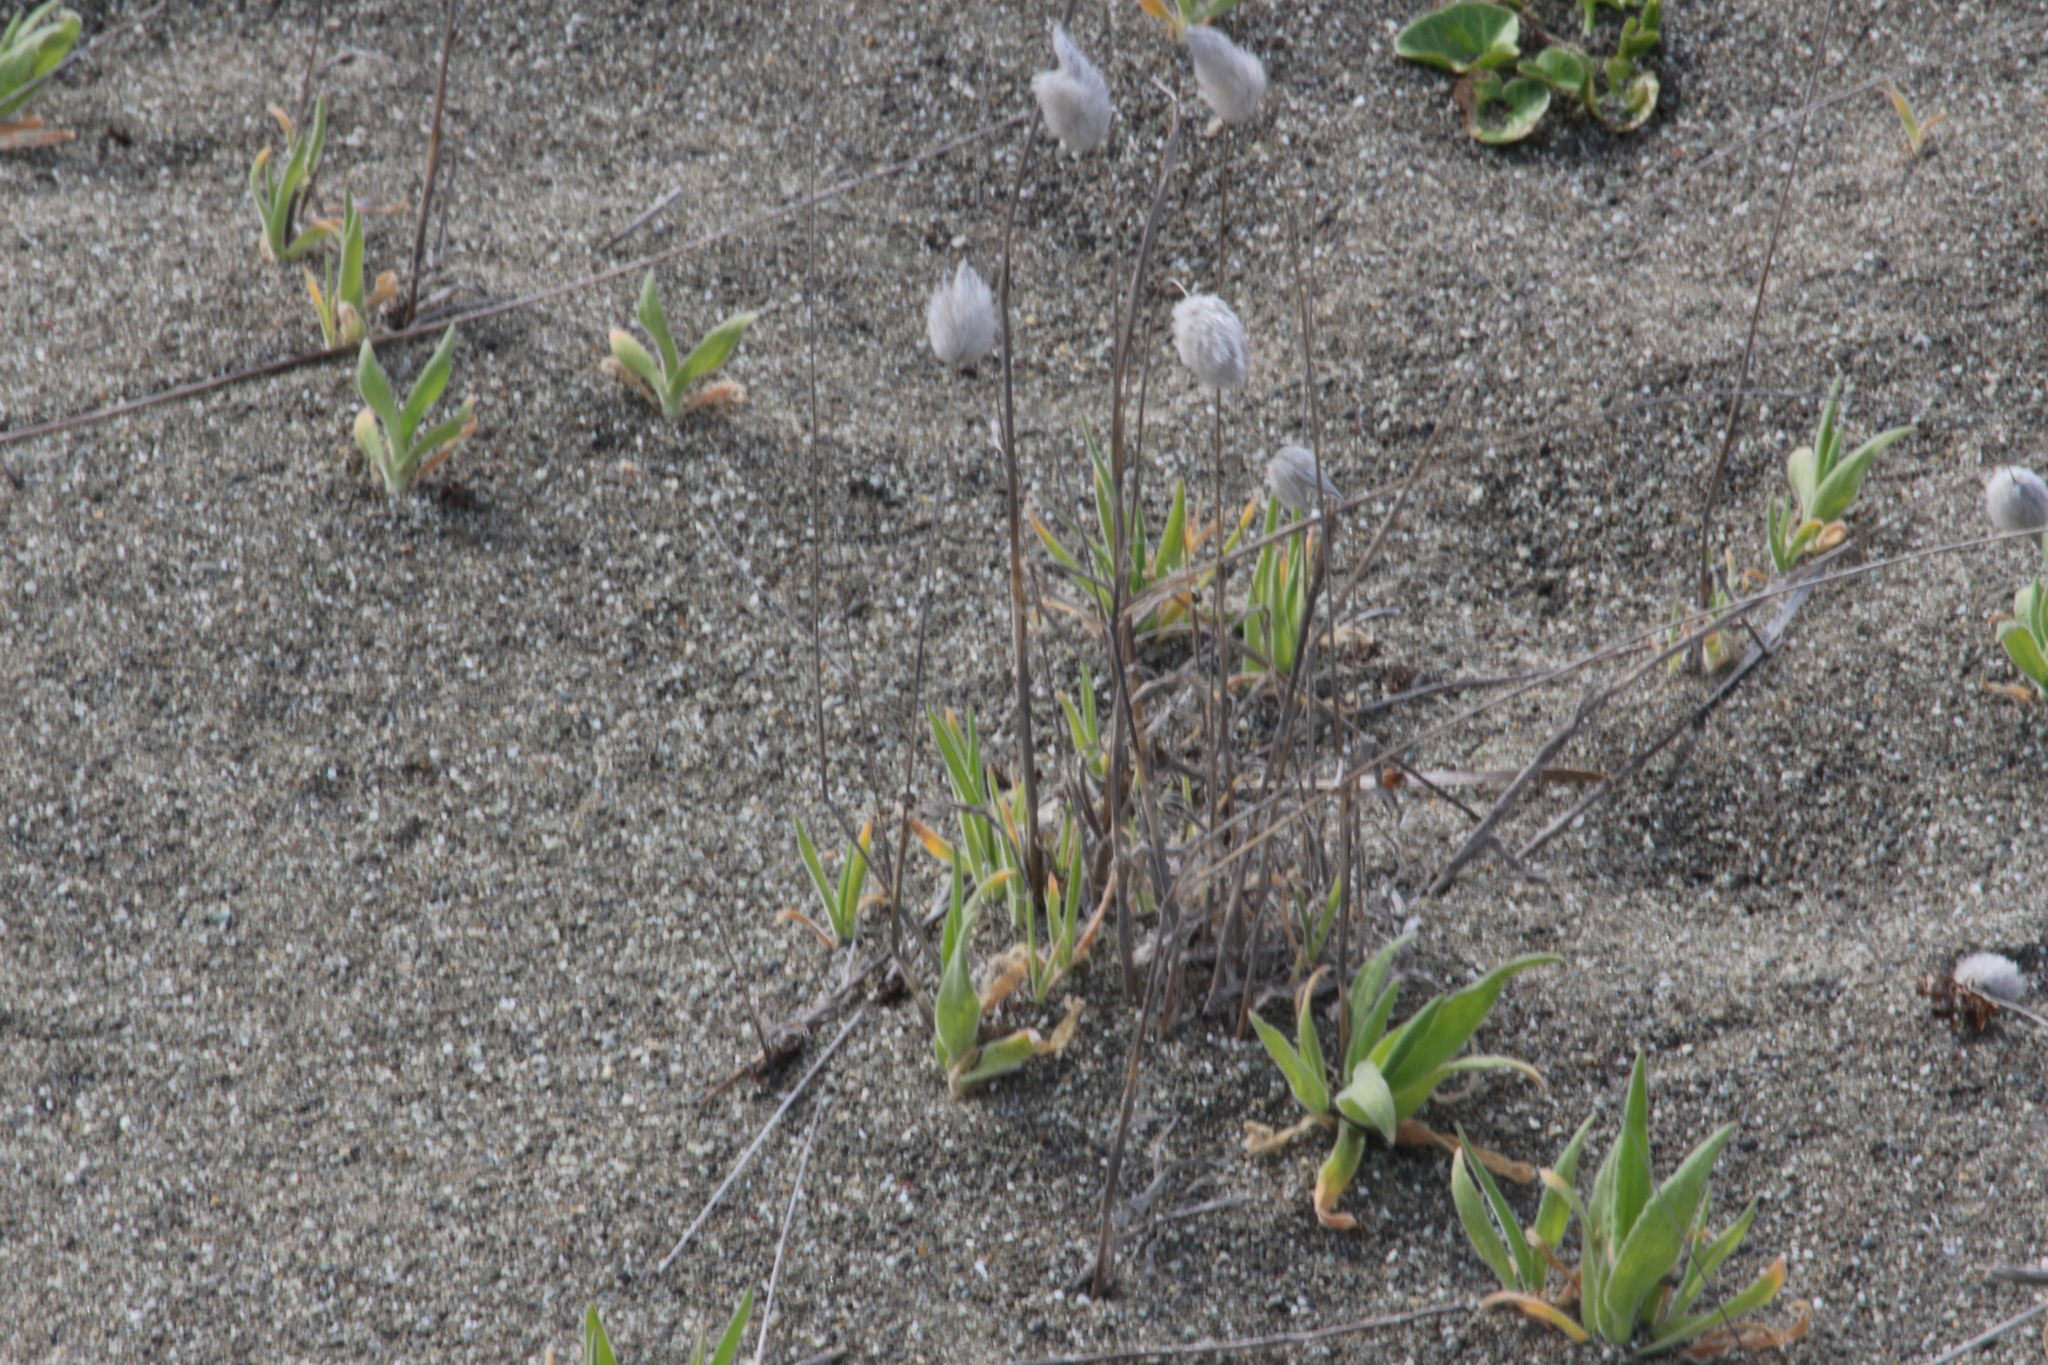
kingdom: Plantae
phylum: Tracheophyta
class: Liliopsida
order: Poales
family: Poaceae
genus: Lagurus
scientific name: Lagurus ovatus
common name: Hare's-tail
